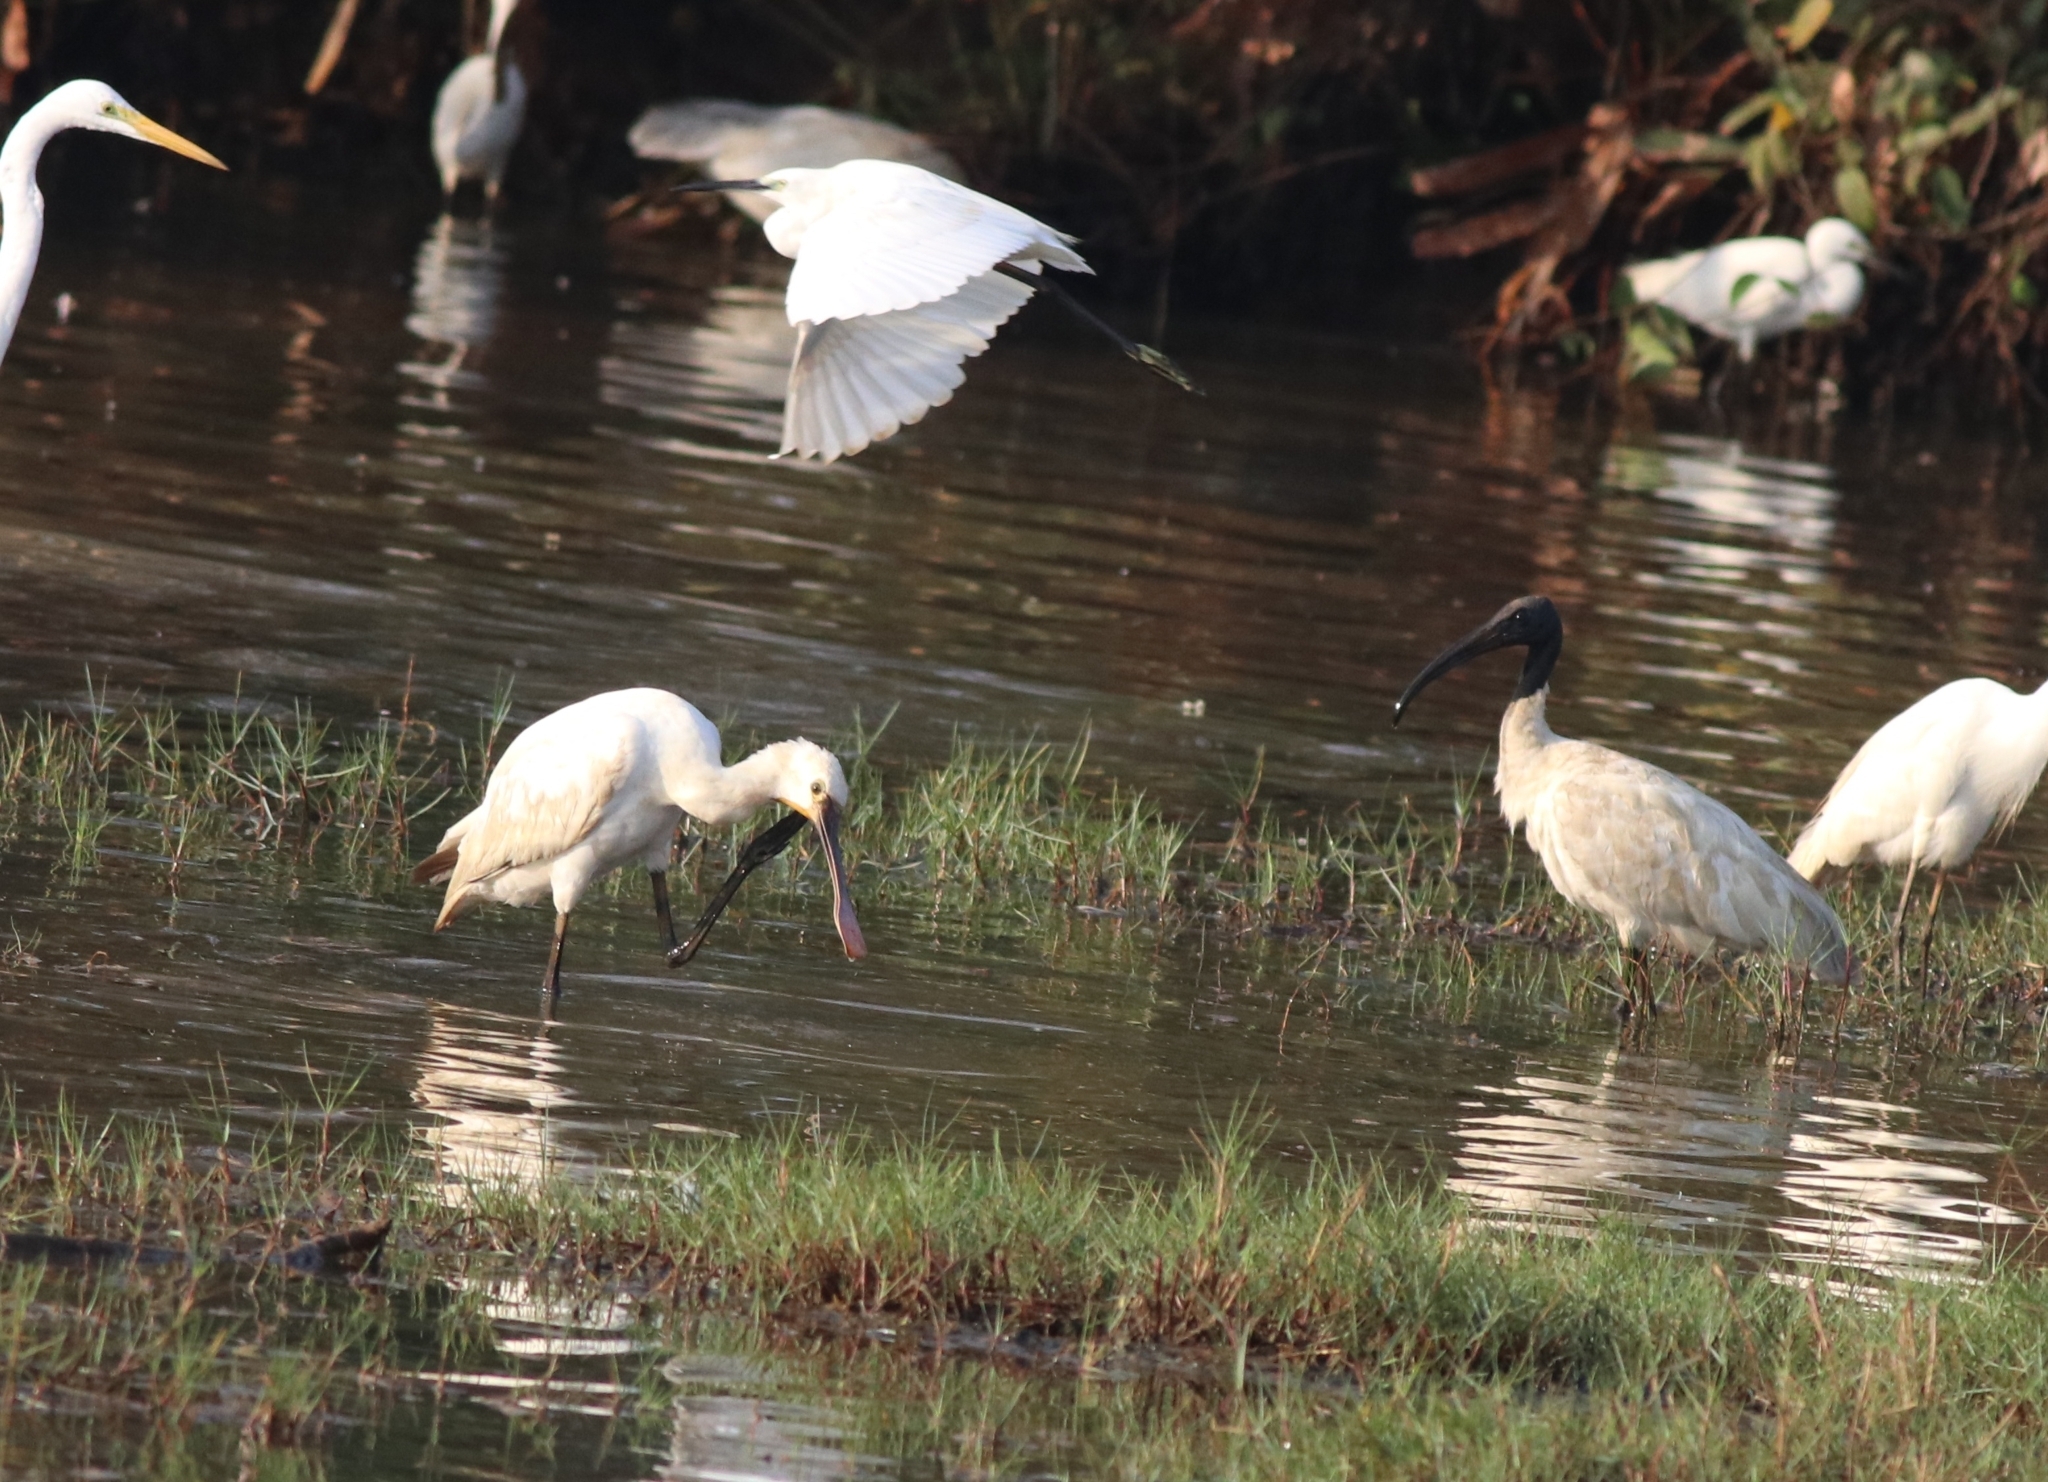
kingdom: Animalia
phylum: Chordata
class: Aves
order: Pelecaniformes
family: Threskiornithidae
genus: Threskiornis
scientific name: Threskiornis melanocephalus
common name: Black-headed ibis
